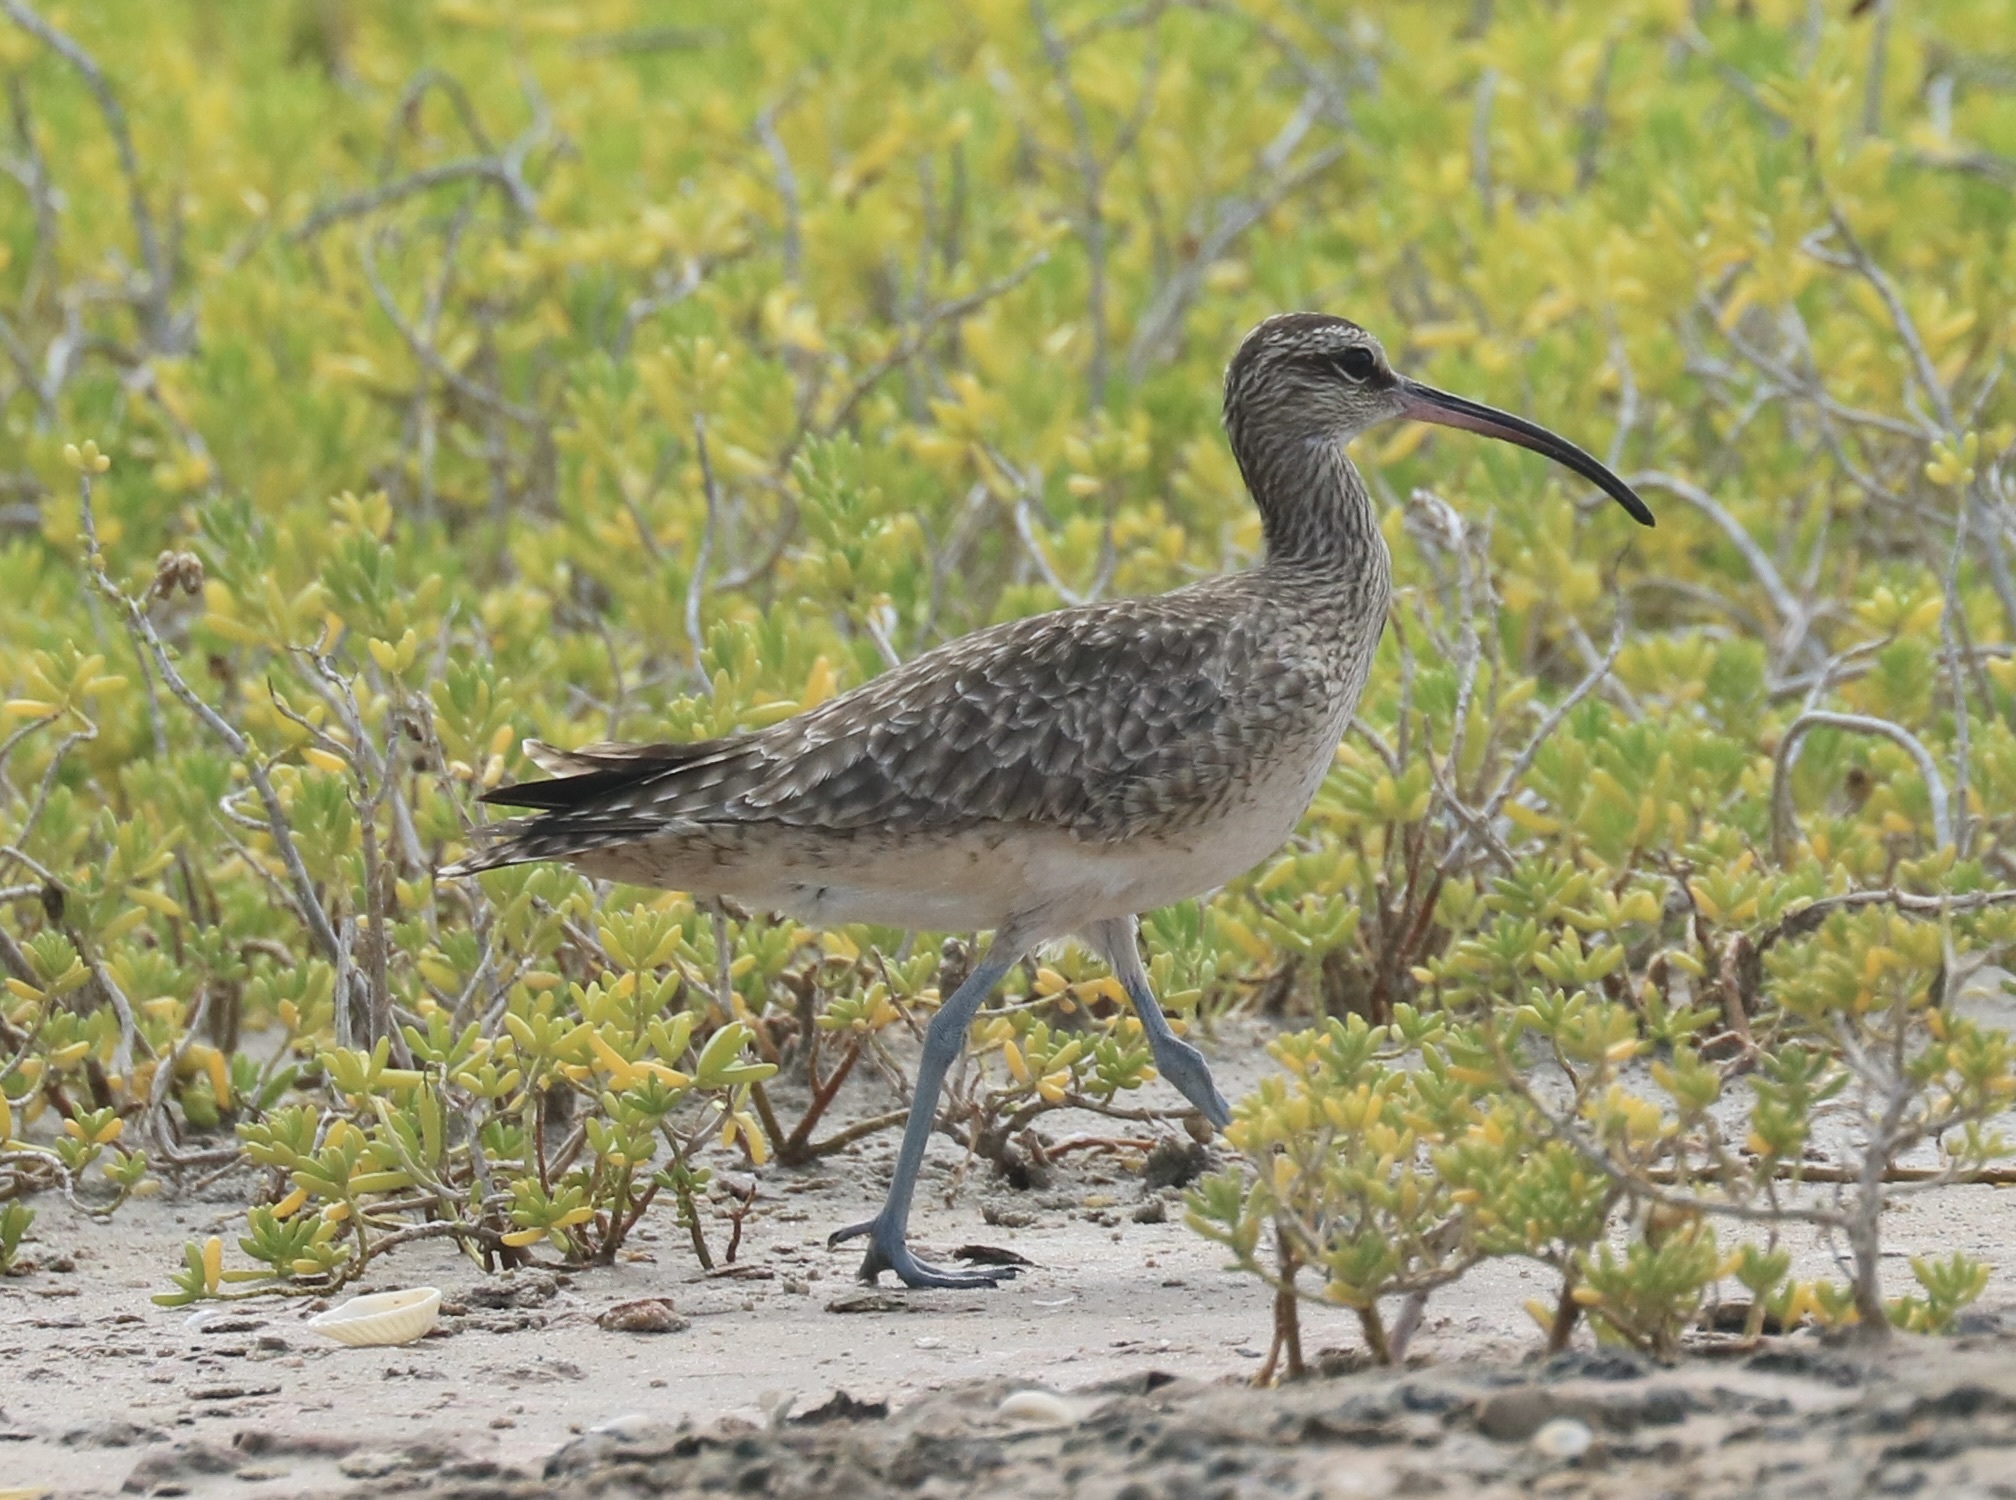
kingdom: Animalia
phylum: Chordata
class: Aves
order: Charadriiformes
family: Scolopacidae
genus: Numenius
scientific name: Numenius phaeopus
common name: Whimbrel
